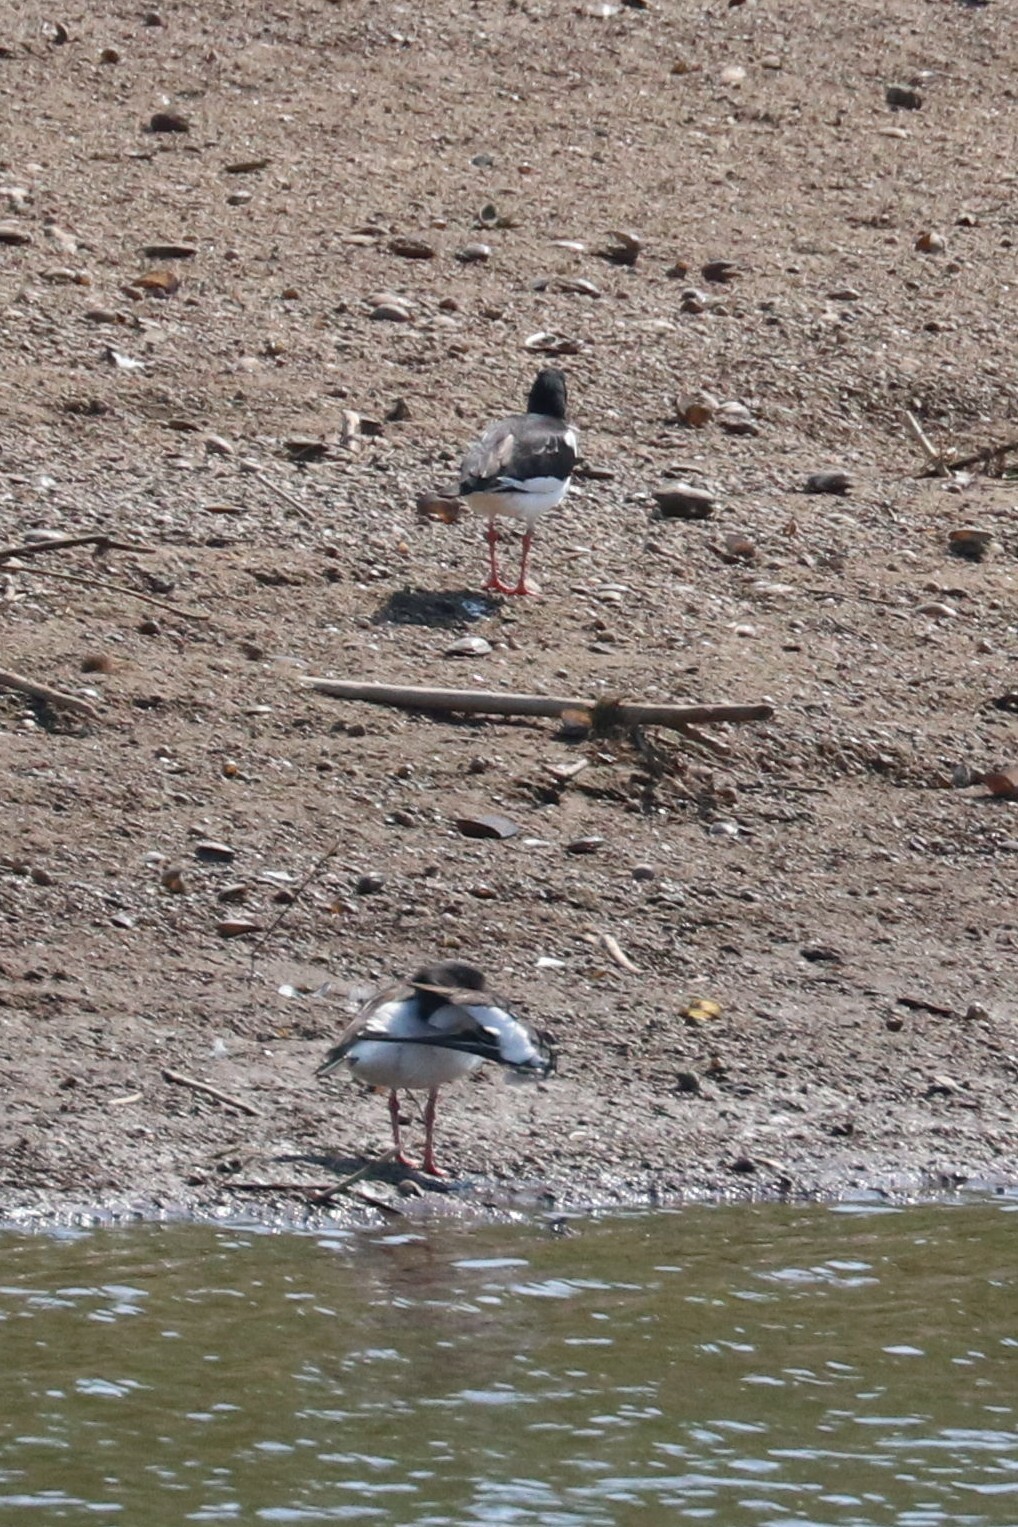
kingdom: Animalia
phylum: Chordata
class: Aves
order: Charadriiformes
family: Haematopodidae
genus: Haematopus
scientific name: Haematopus ostralegus
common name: Eurasian oystercatcher
